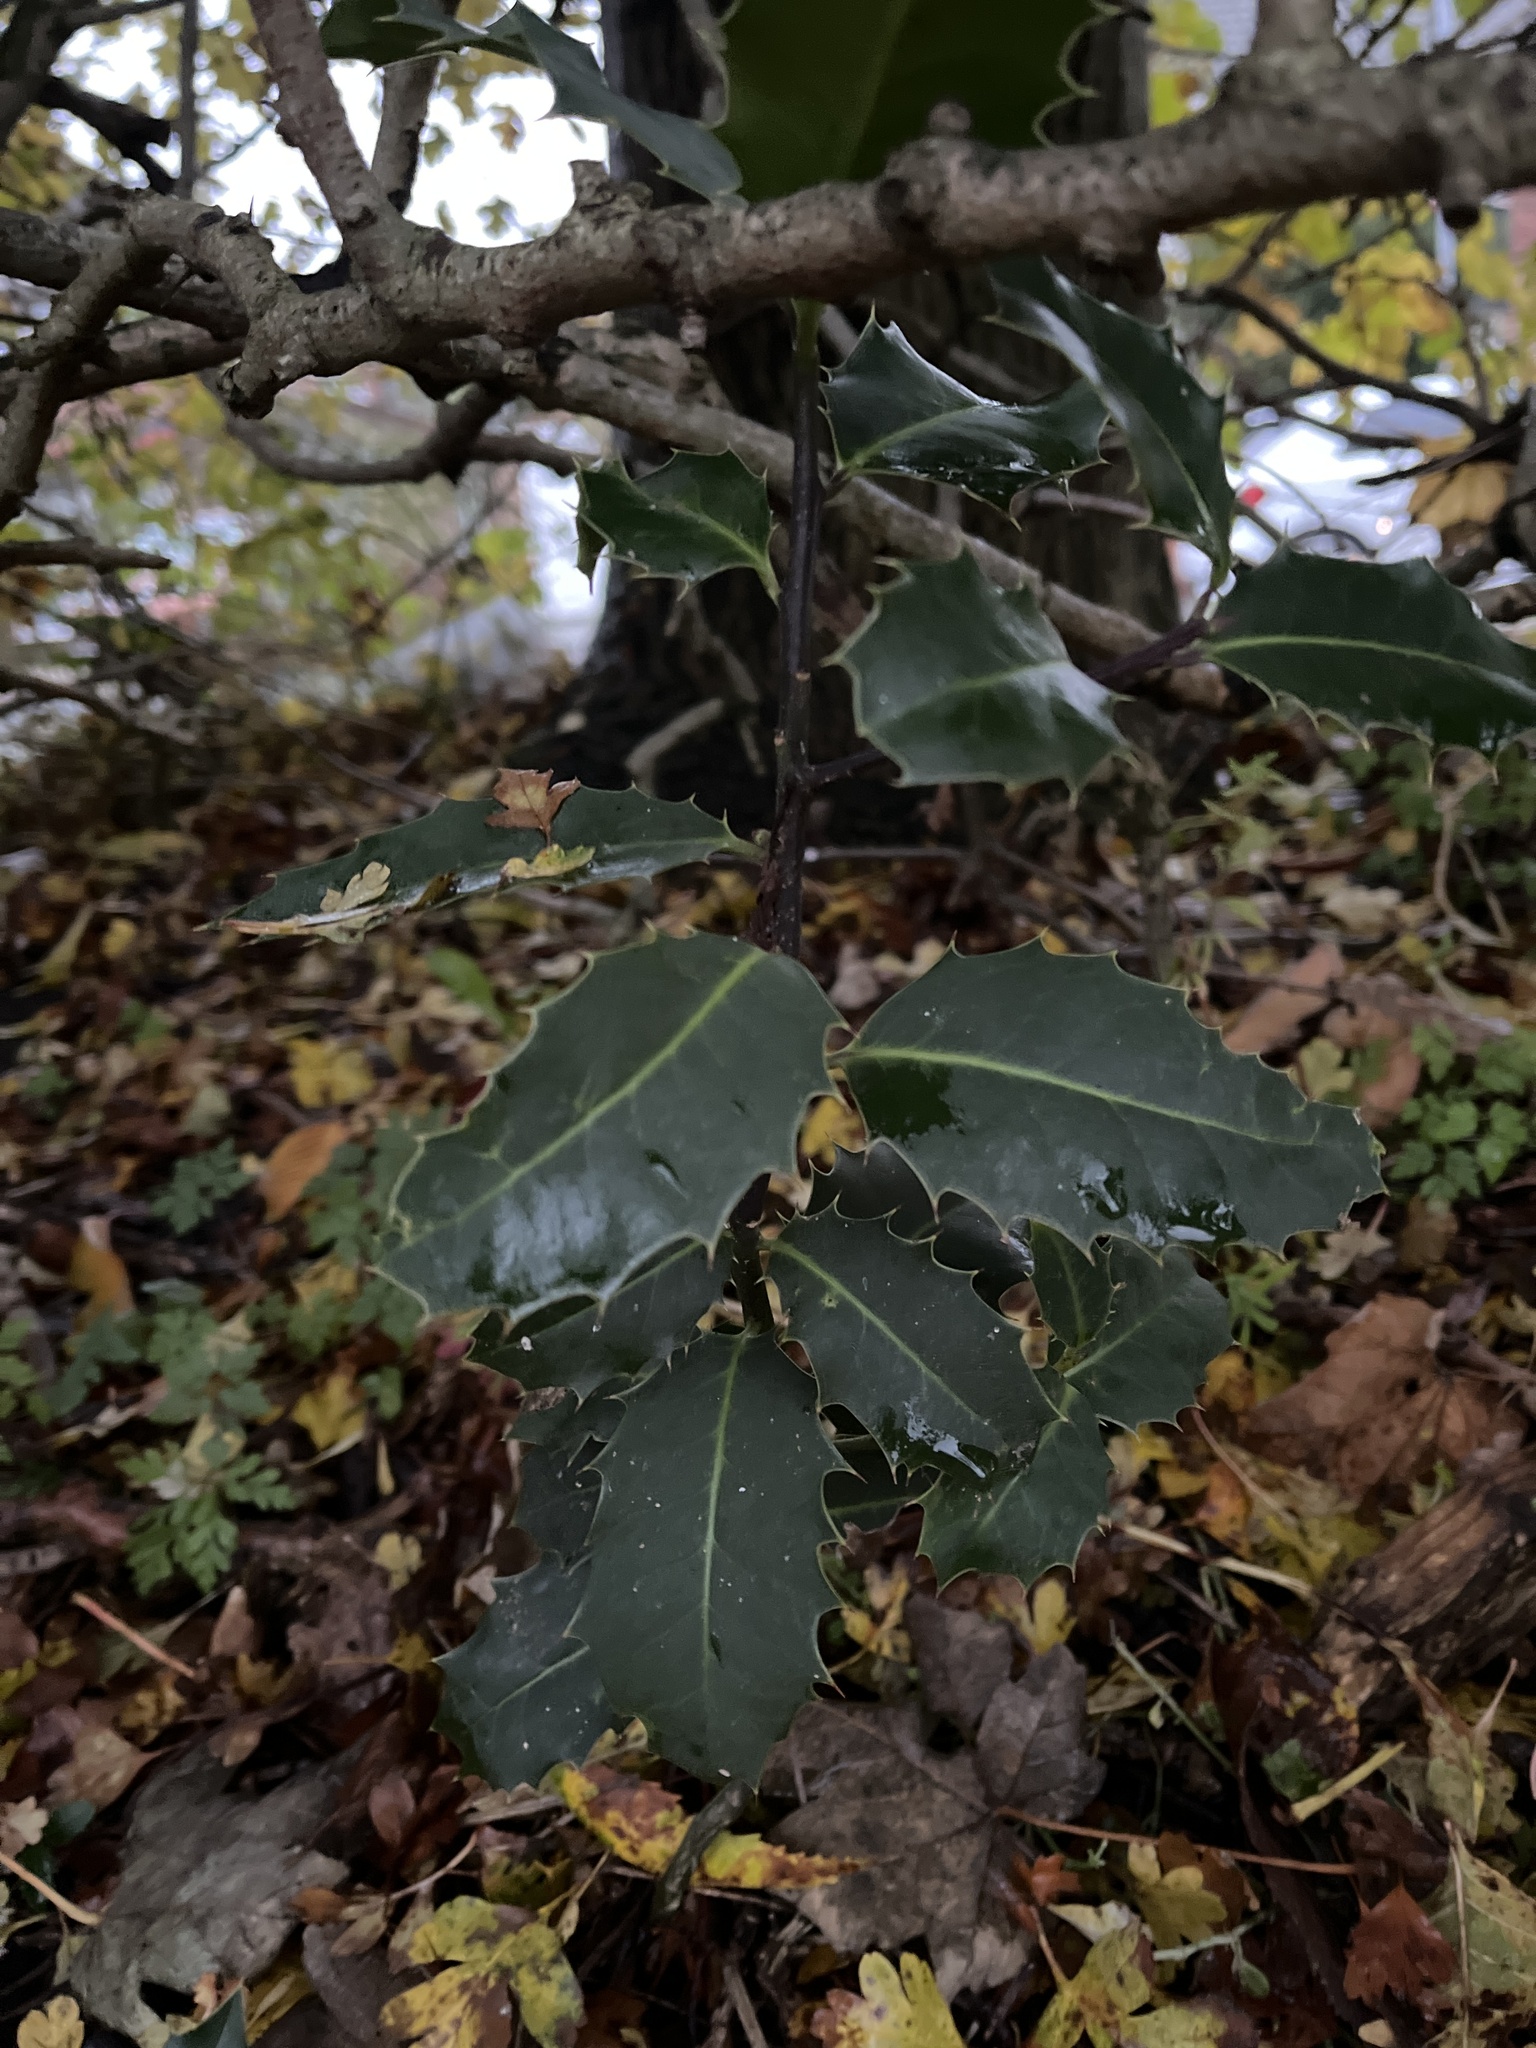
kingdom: Plantae
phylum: Tracheophyta
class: Magnoliopsida
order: Aquifoliales
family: Aquifoliaceae
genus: Ilex
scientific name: Ilex aquifolium
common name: English holly
